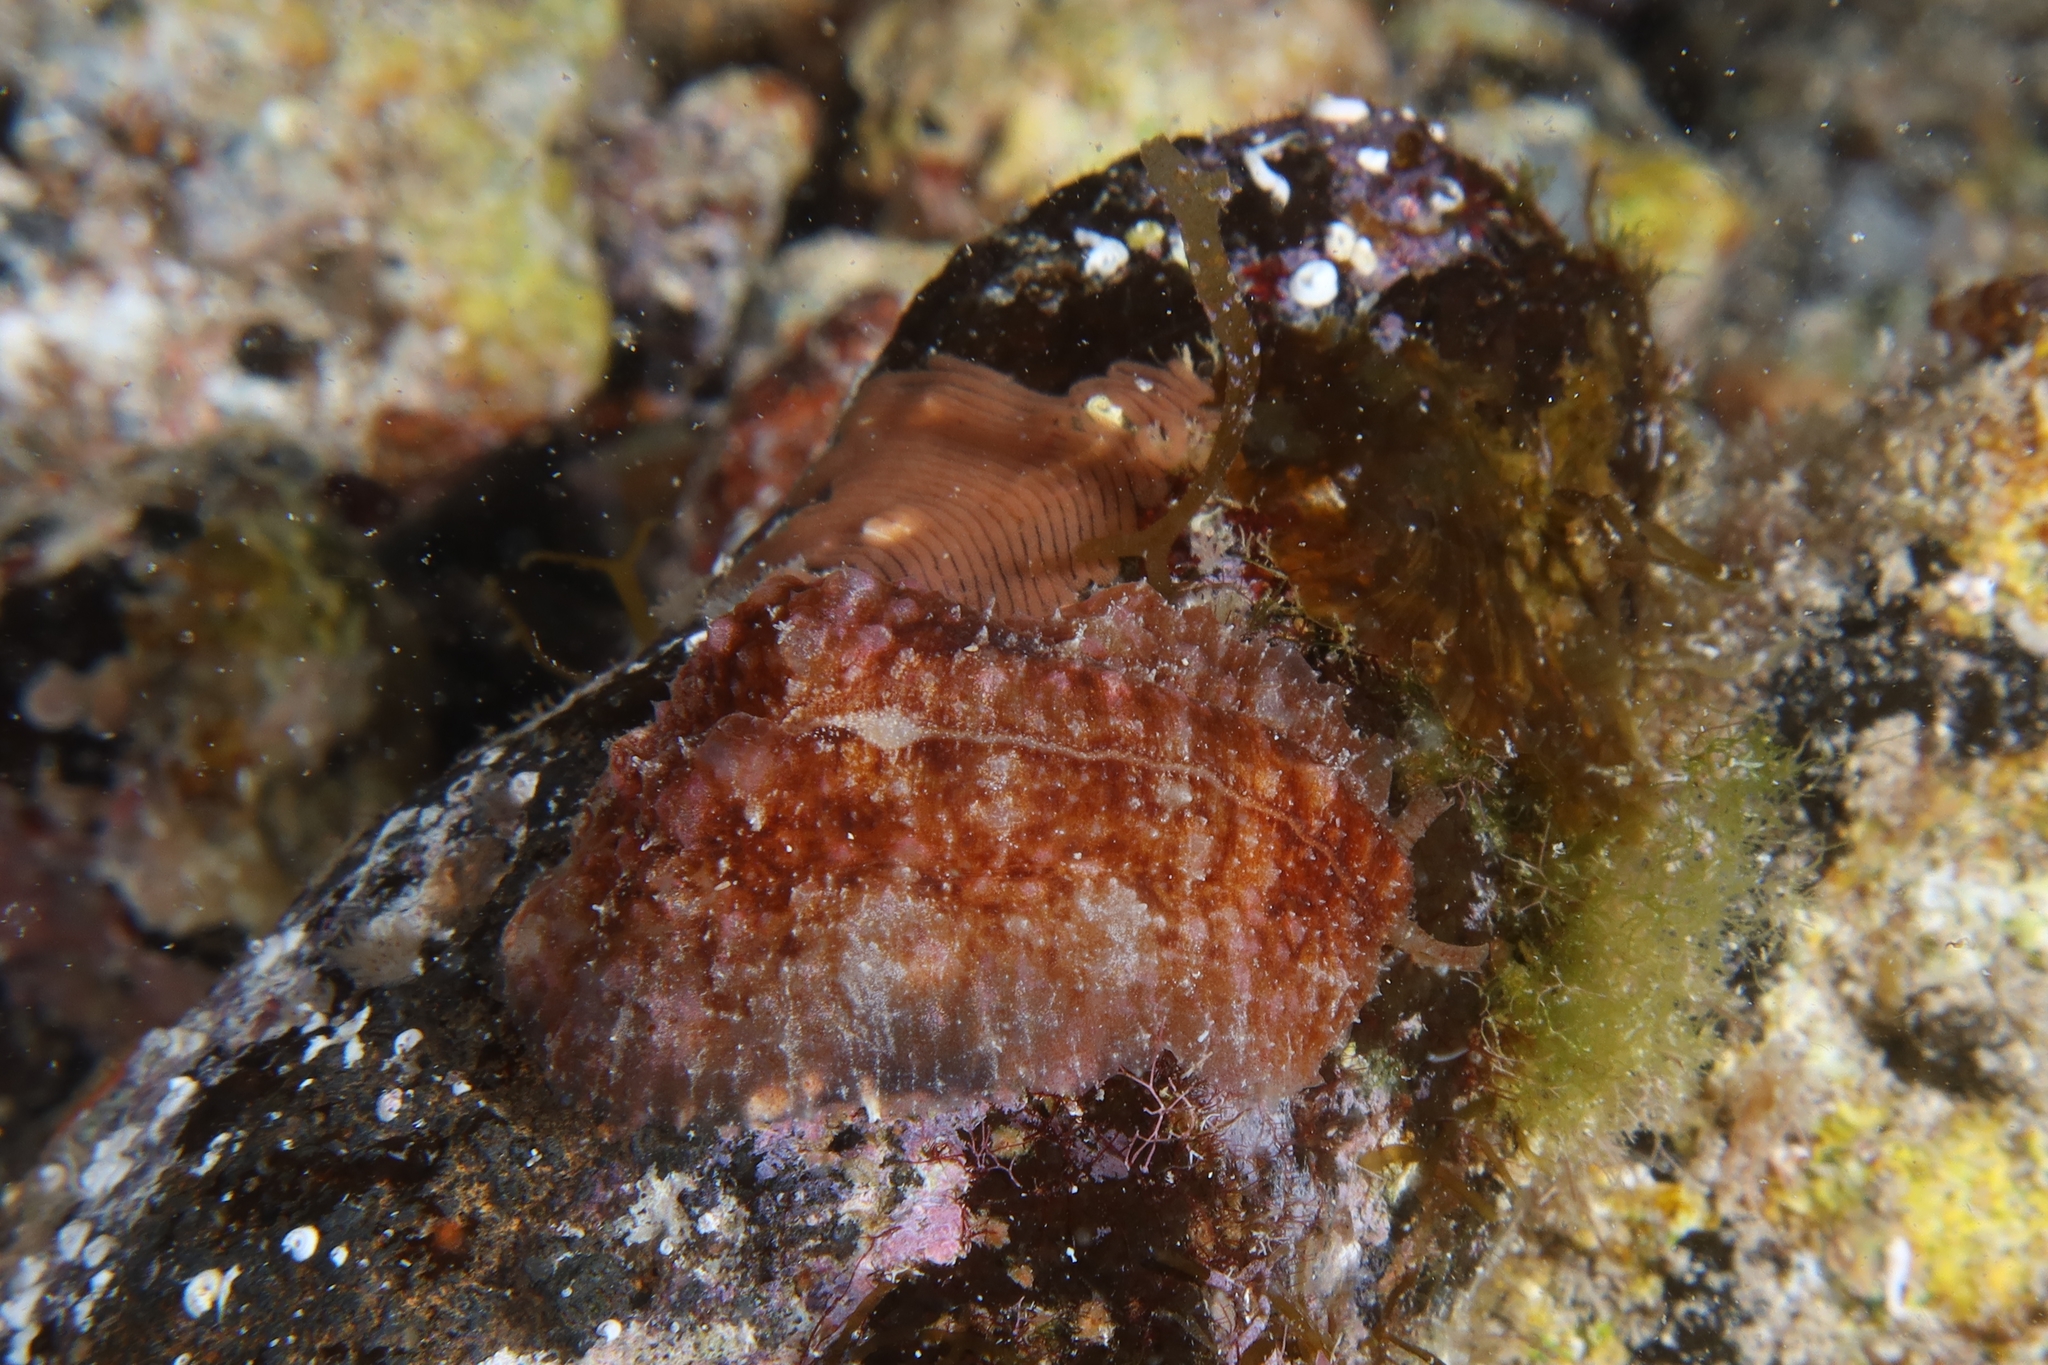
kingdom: Animalia
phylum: Mollusca
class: Gastropoda
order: Aplysiida
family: Aplysiidae
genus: Dolabrifera
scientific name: Dolabrifera edmundsi
